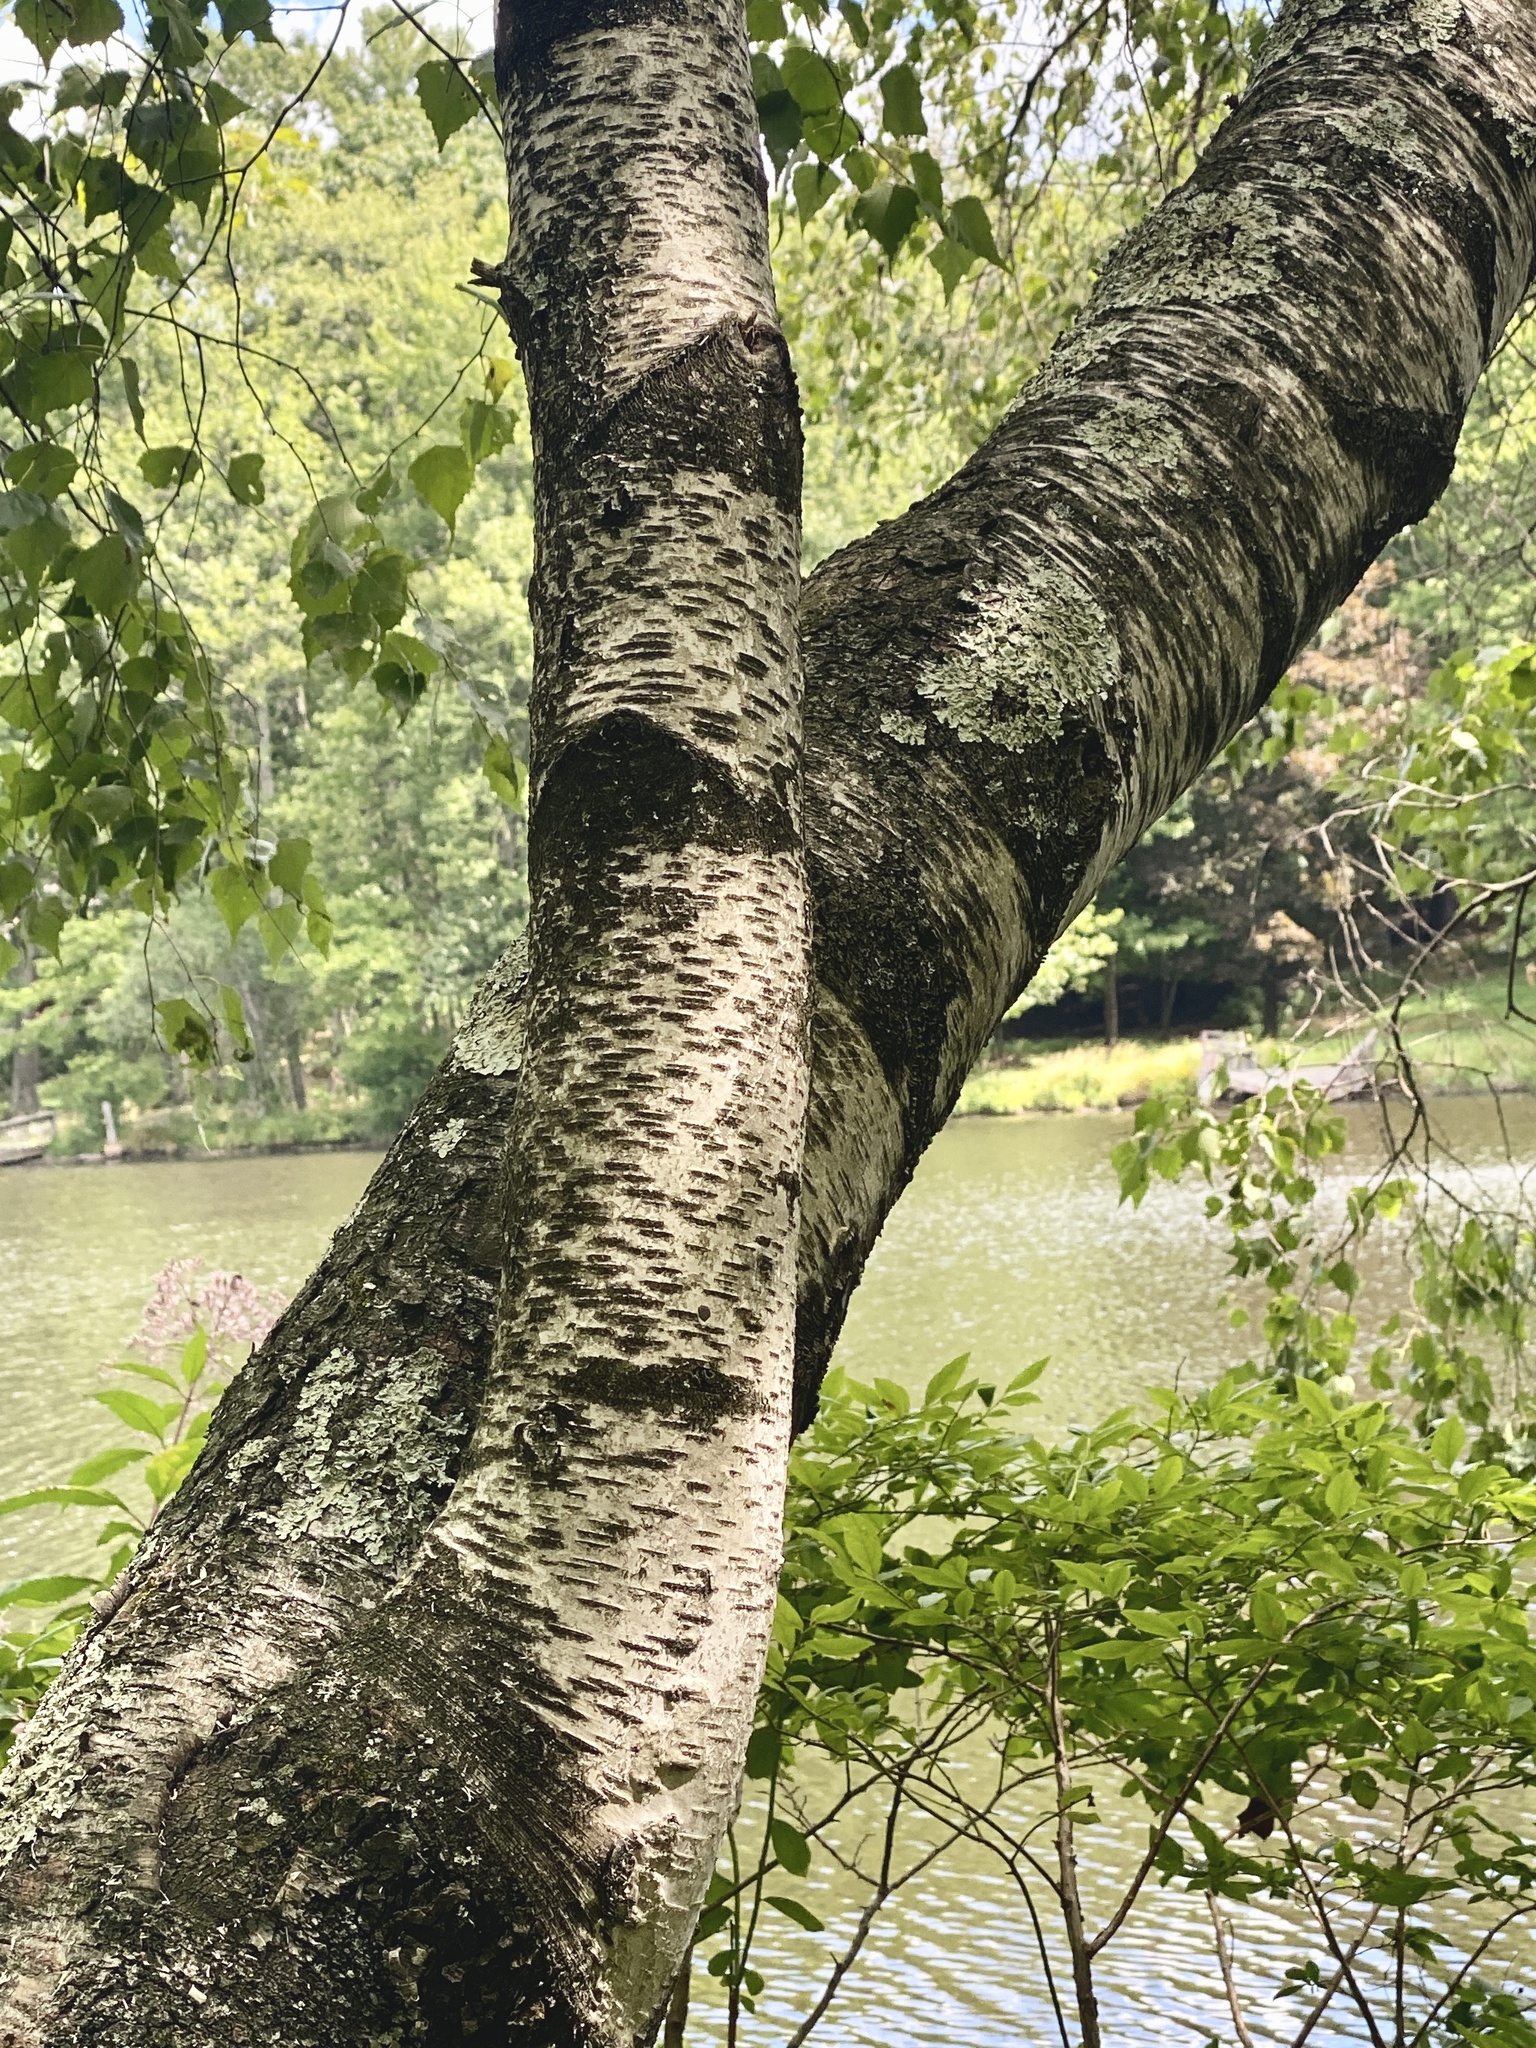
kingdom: Plantae
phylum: Tracheophyta
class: Magnoliopsida
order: Fagales
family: Betulaceae
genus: Betula
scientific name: Betula populifolia
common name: Fire birch
